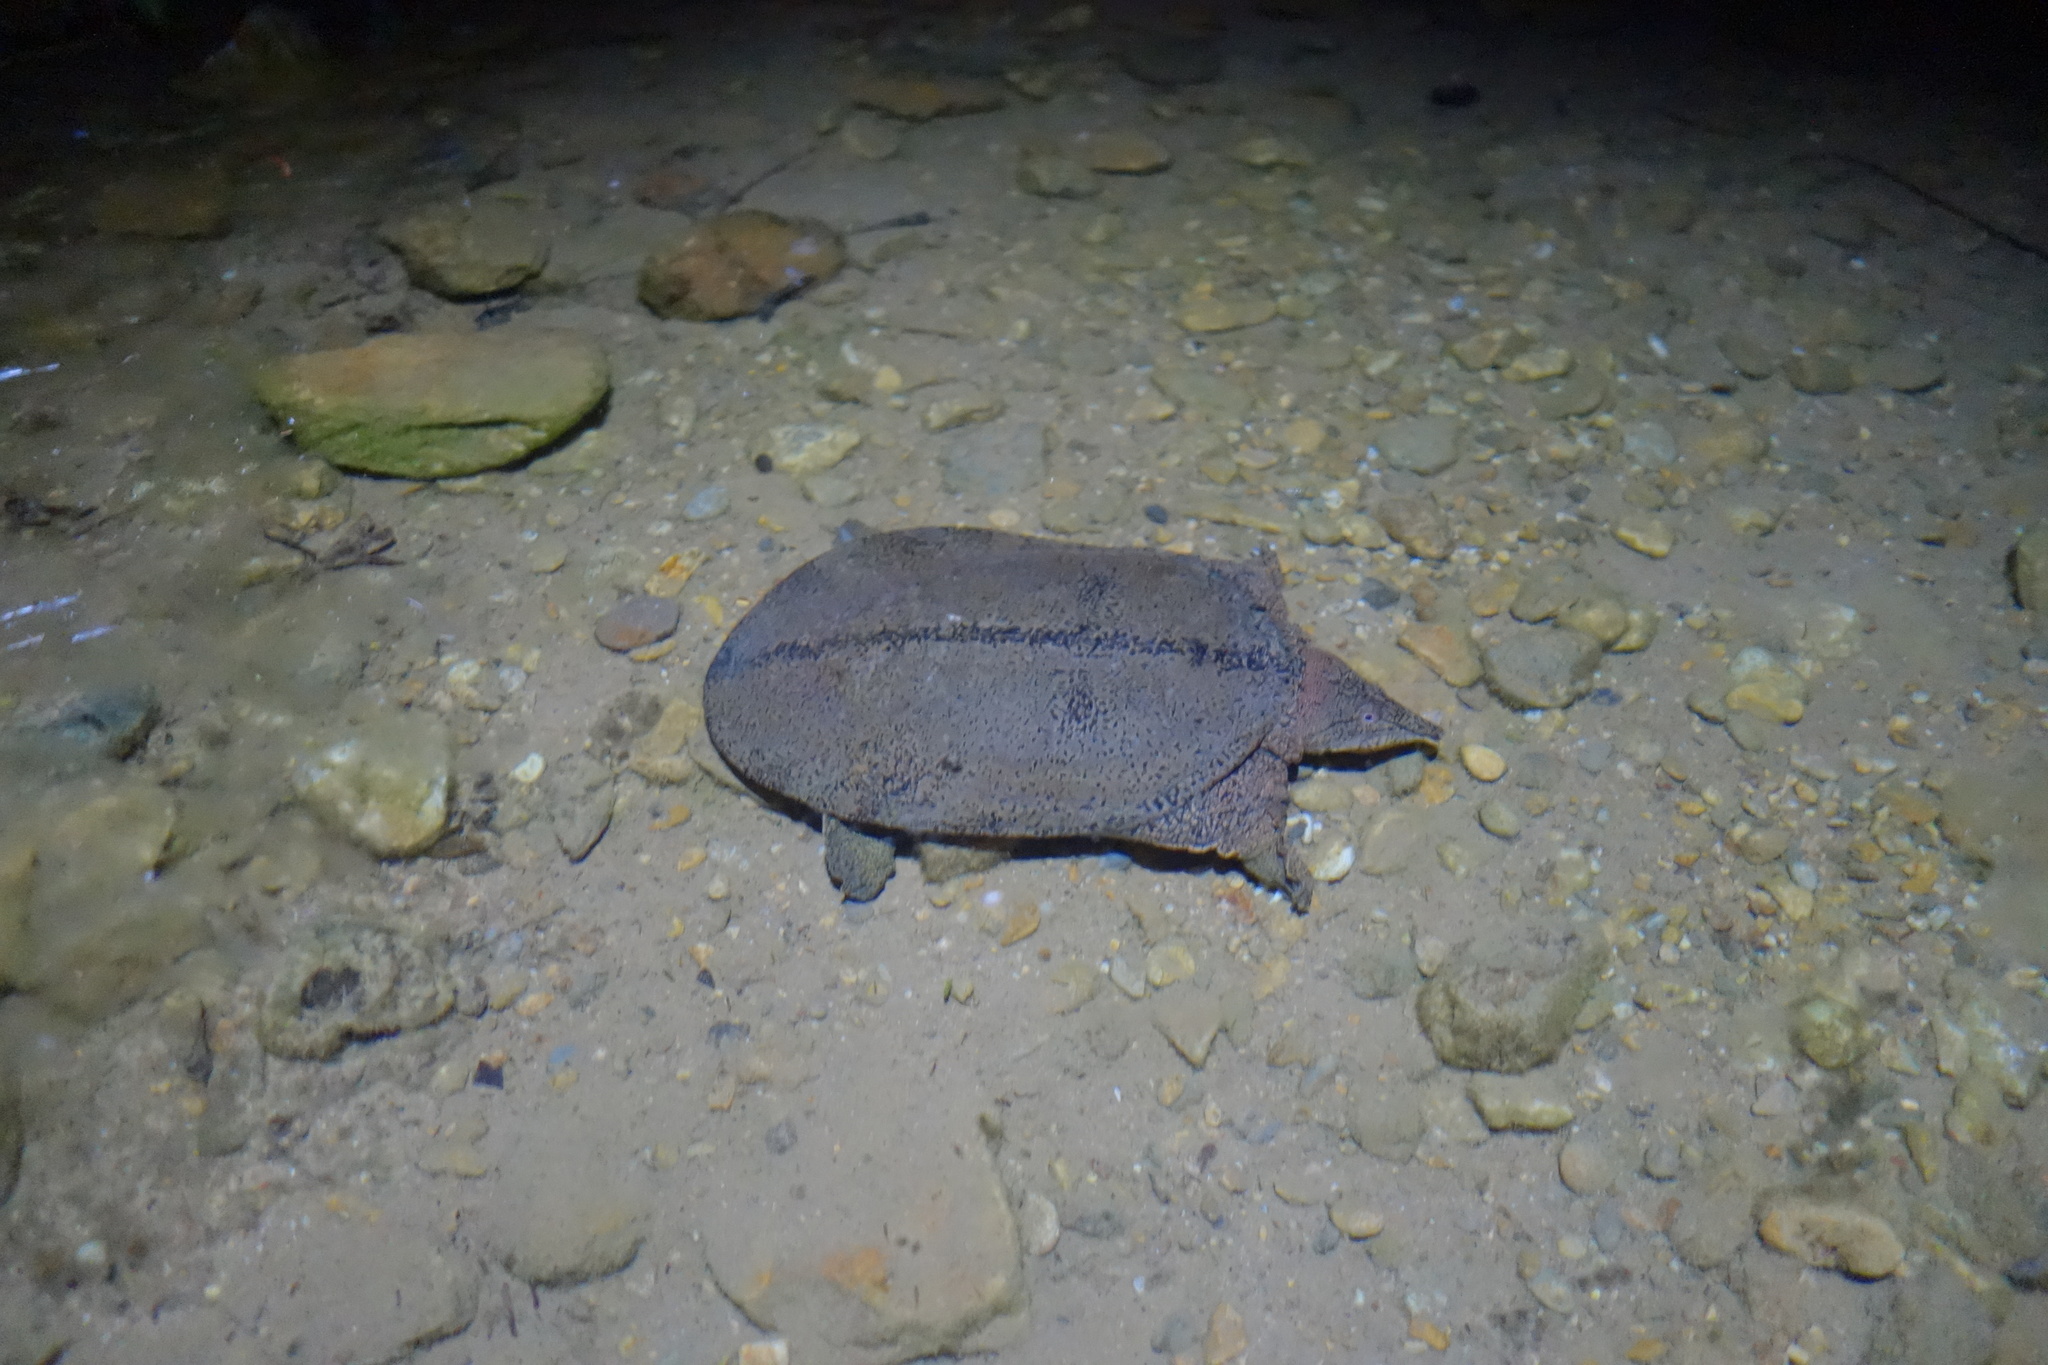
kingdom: Animalia
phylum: Chordata
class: Testudines
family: Trionychidae
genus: Dogania
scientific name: Dogania subplana
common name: Malayan soft-shelled turtle
